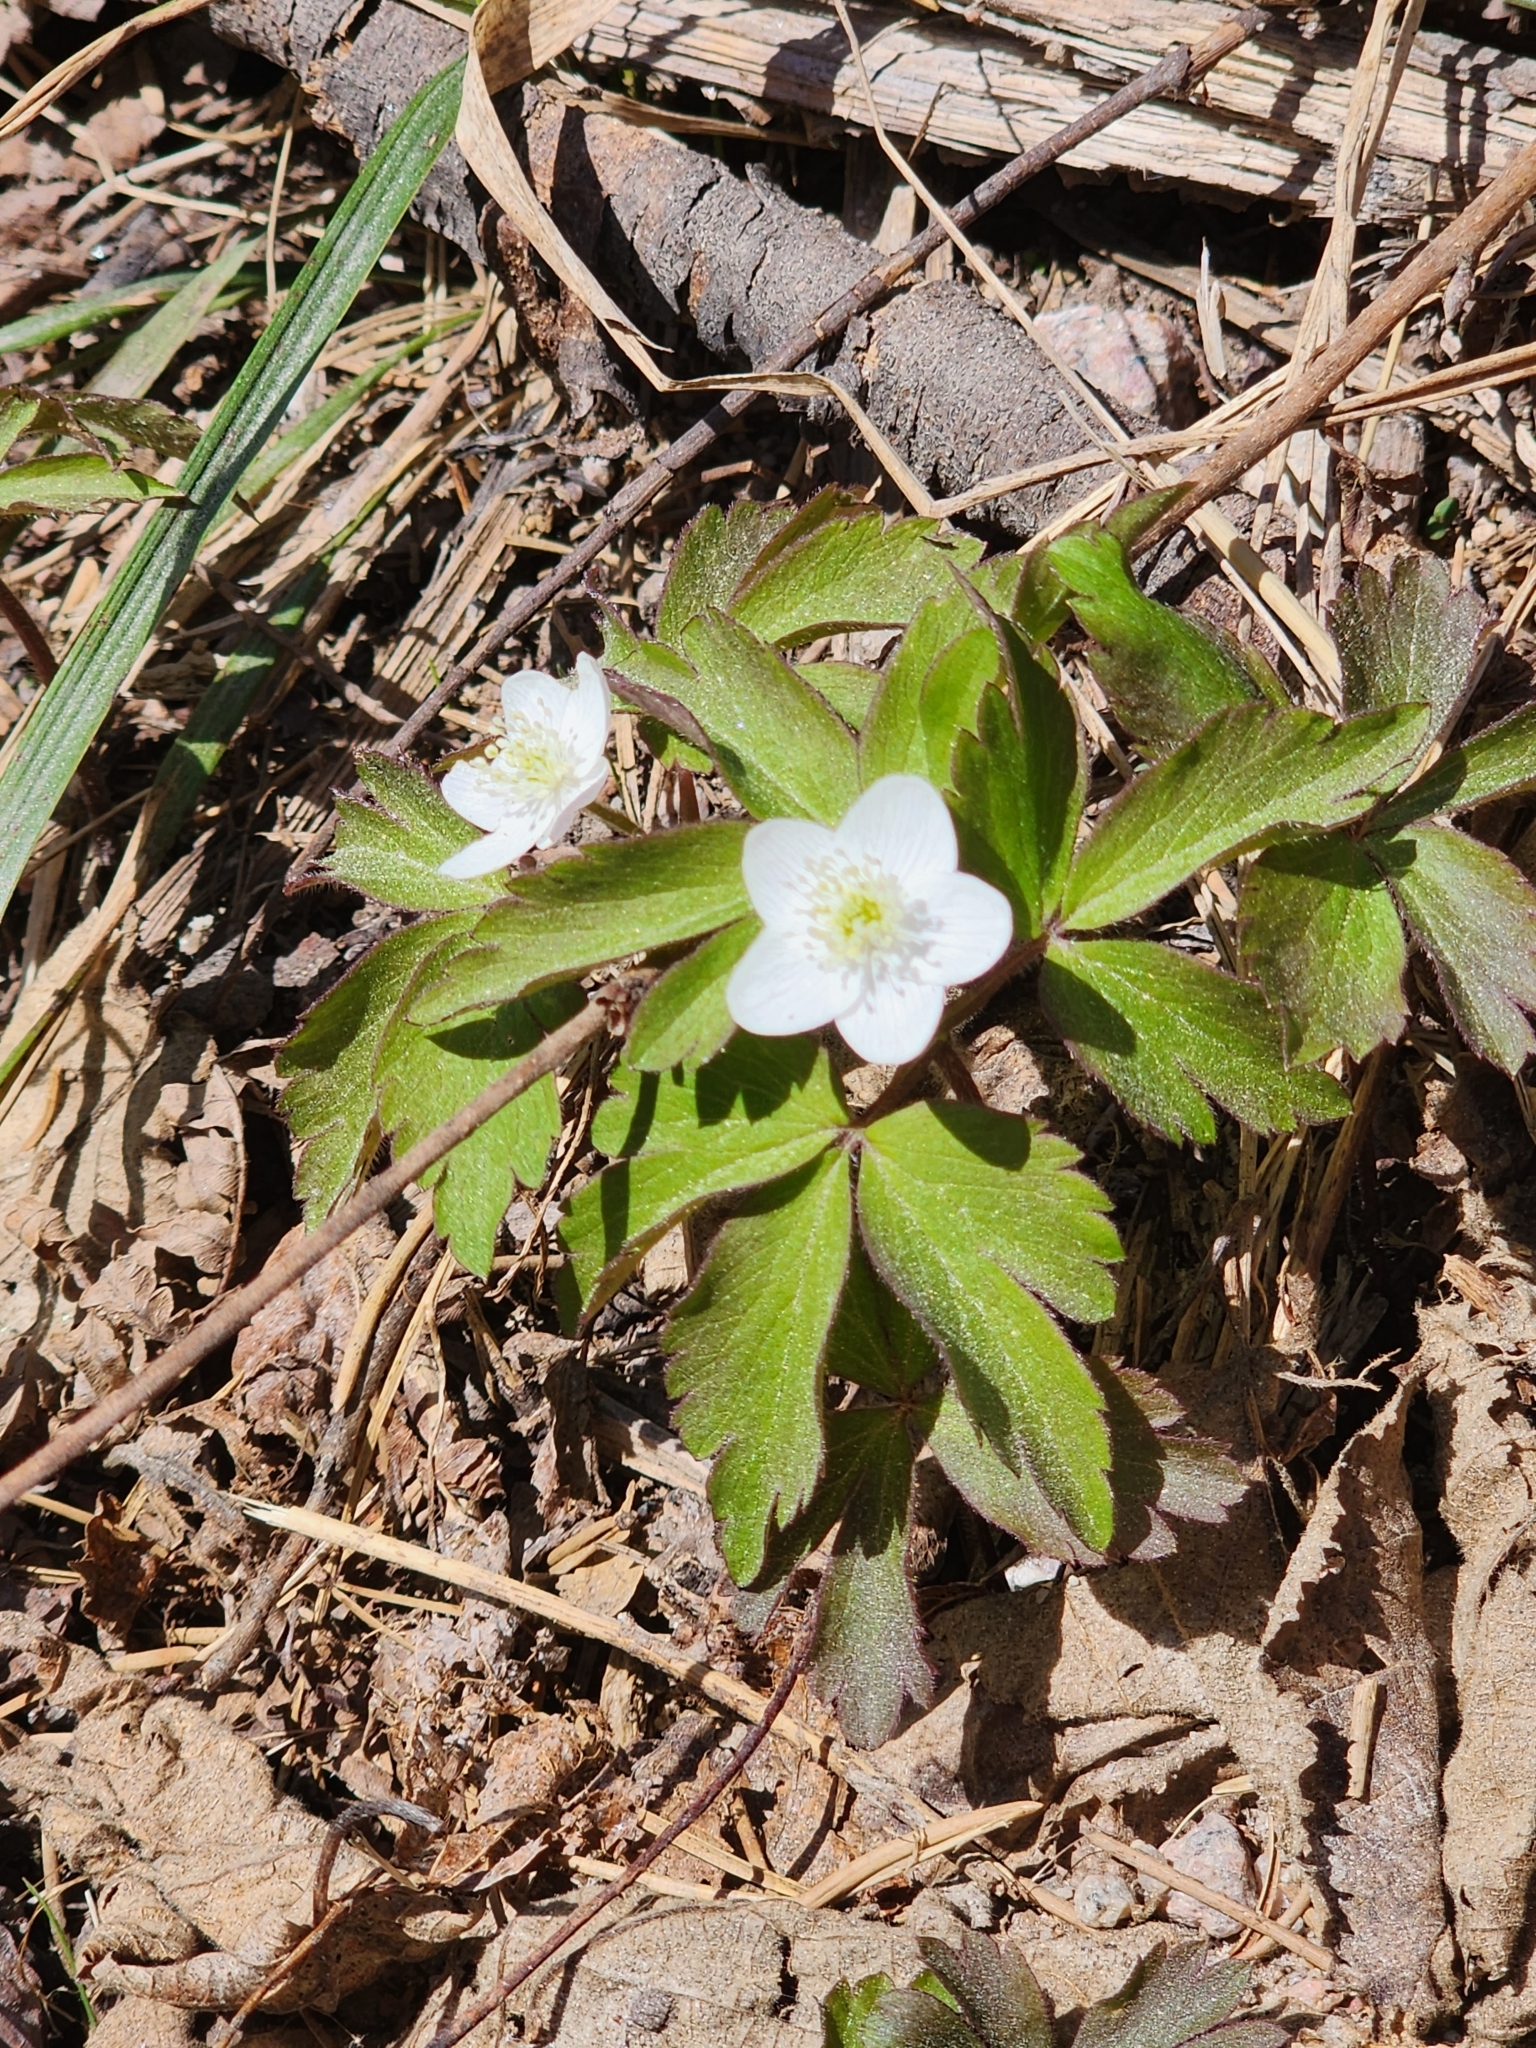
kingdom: Plantae
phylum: Tracheophyta
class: Magnoliopsida
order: Ranunculales
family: Ranunculaceae
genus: Anemone
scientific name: Anemone quinquefolia
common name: Wood anemone
